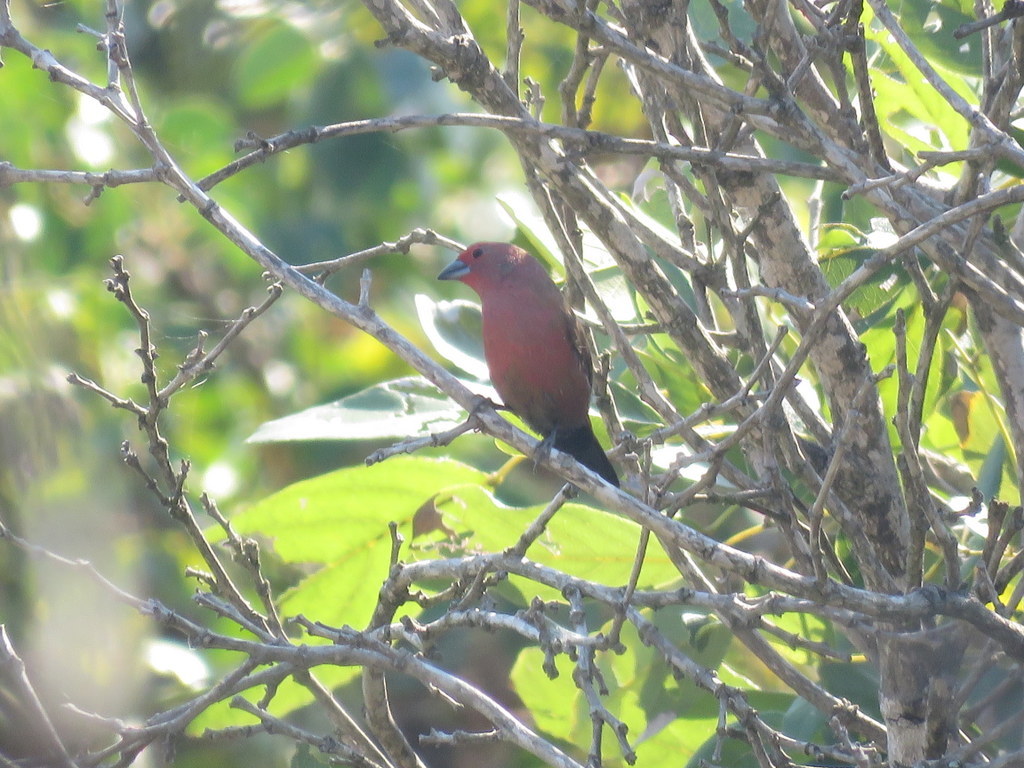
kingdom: Animalia
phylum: Chordata
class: Aves
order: Passeriformes
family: Estrildidae
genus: Lagonosticta
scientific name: Lagonosticta rhodopareia
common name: Jameson's firefinch
